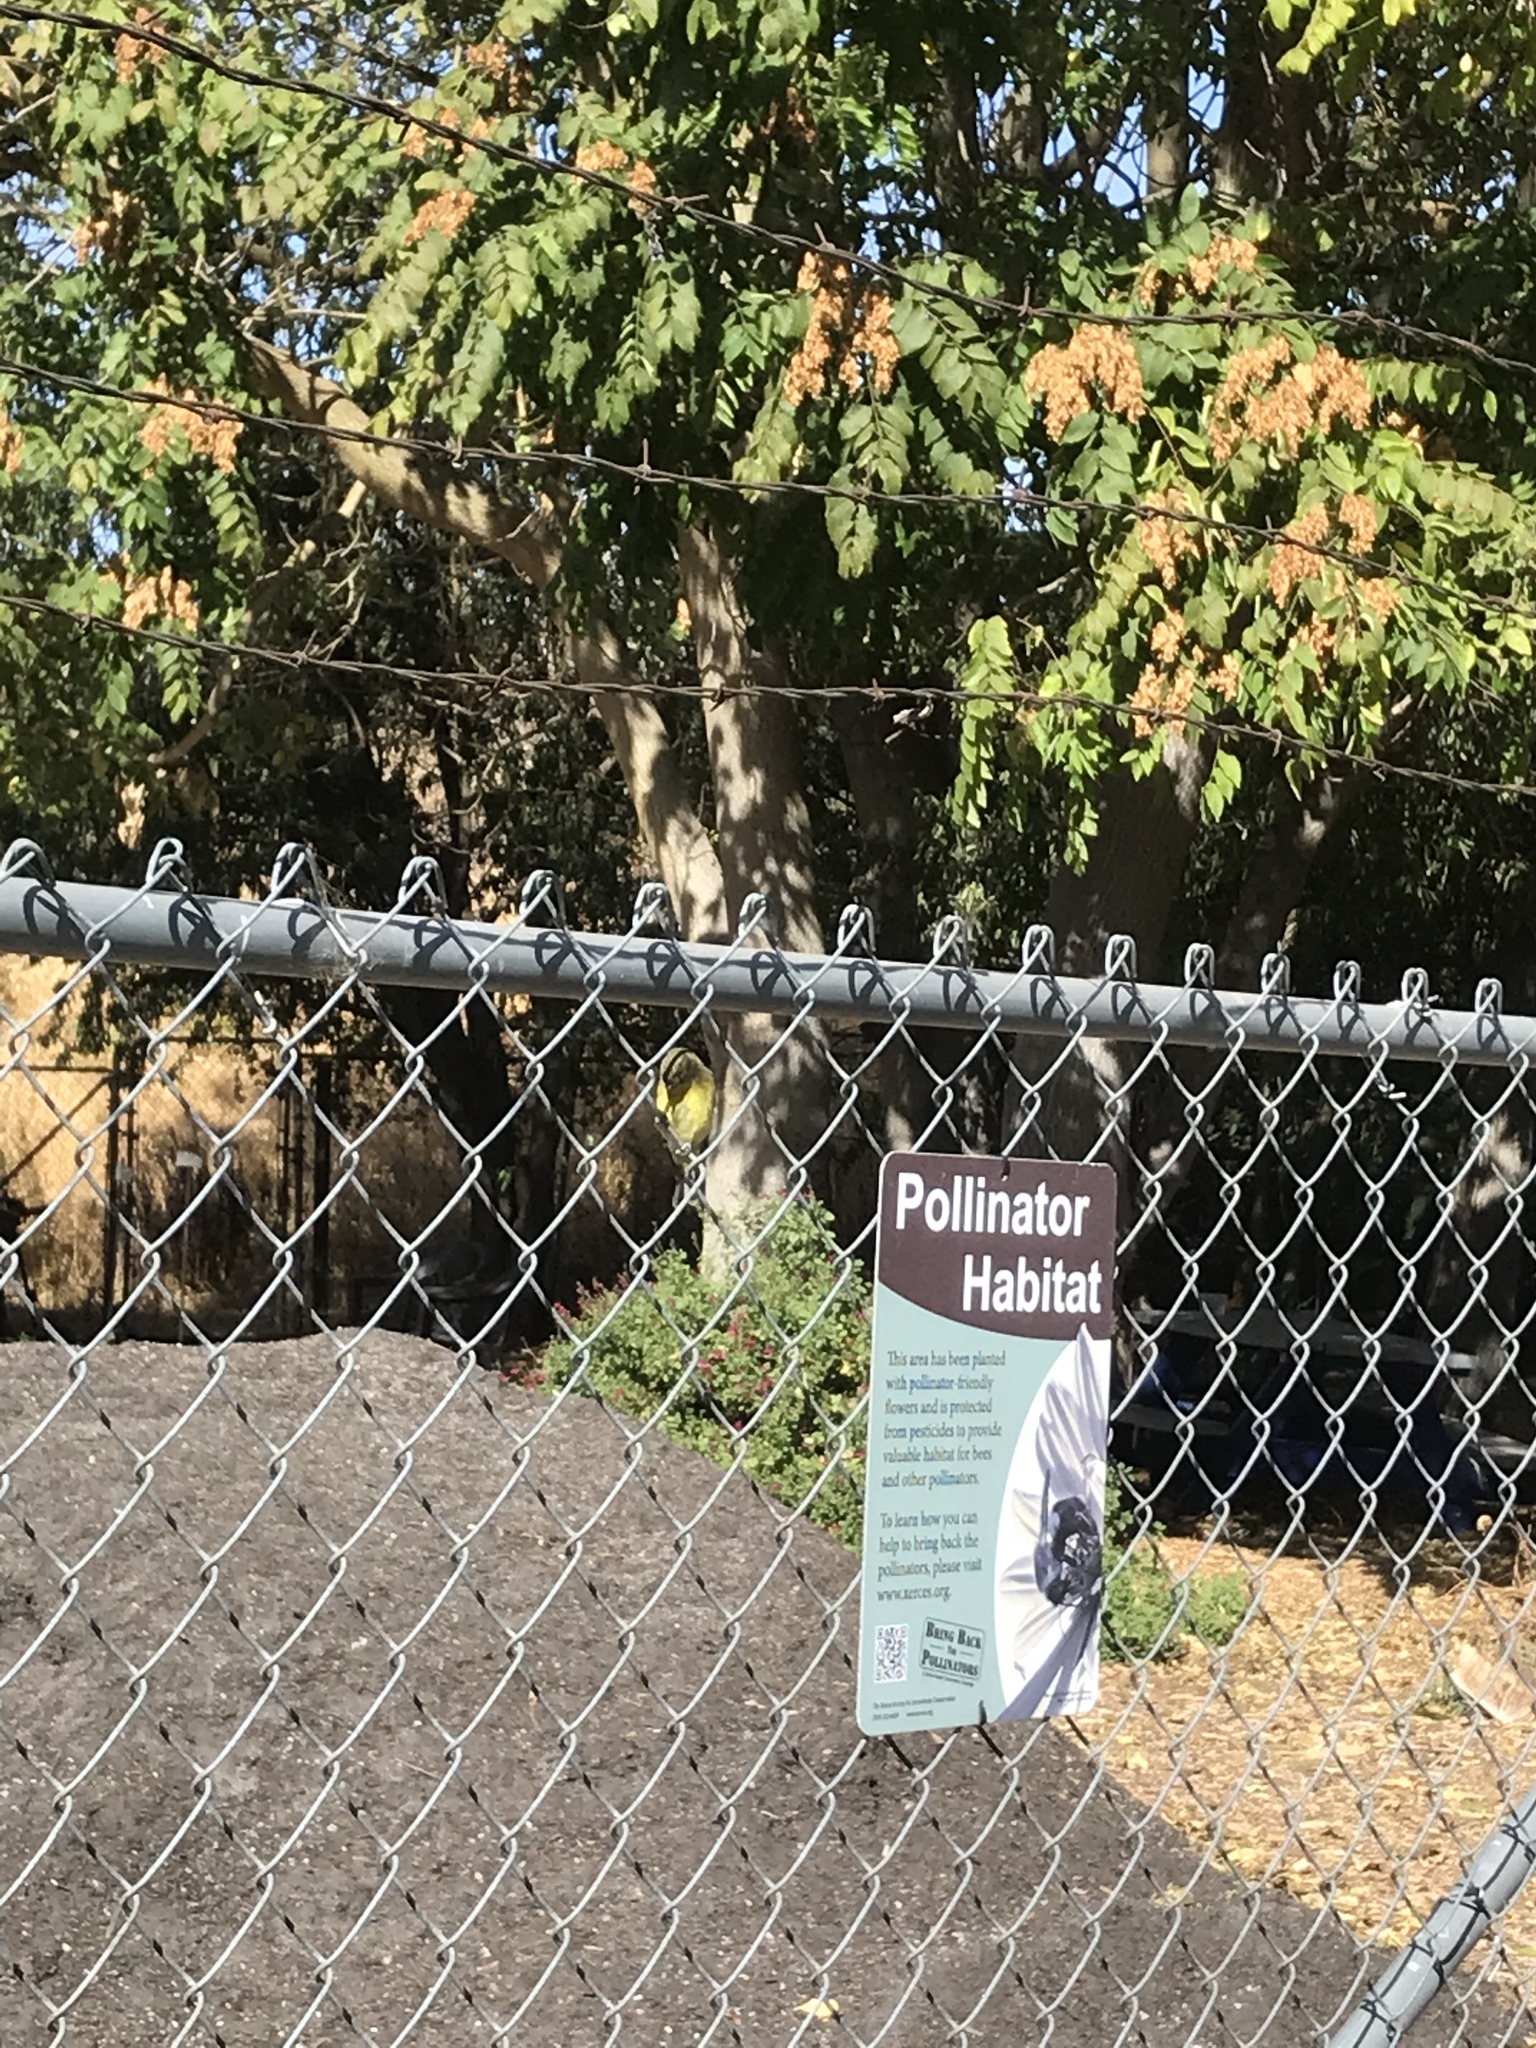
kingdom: Animalia
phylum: Chordata
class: Aves
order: Passeriformes
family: Fringillidae
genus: Spinus
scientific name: Spinus psaltria
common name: Lesser goldfinch
